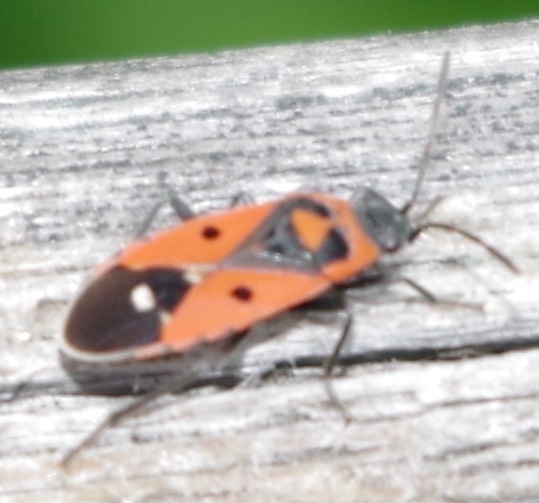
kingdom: Animalia
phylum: Arthropoda
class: Insecta
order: Hemiptera
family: Lygaeidae
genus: Melanocoryphus
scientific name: Melanocoryphus albomaculatus
